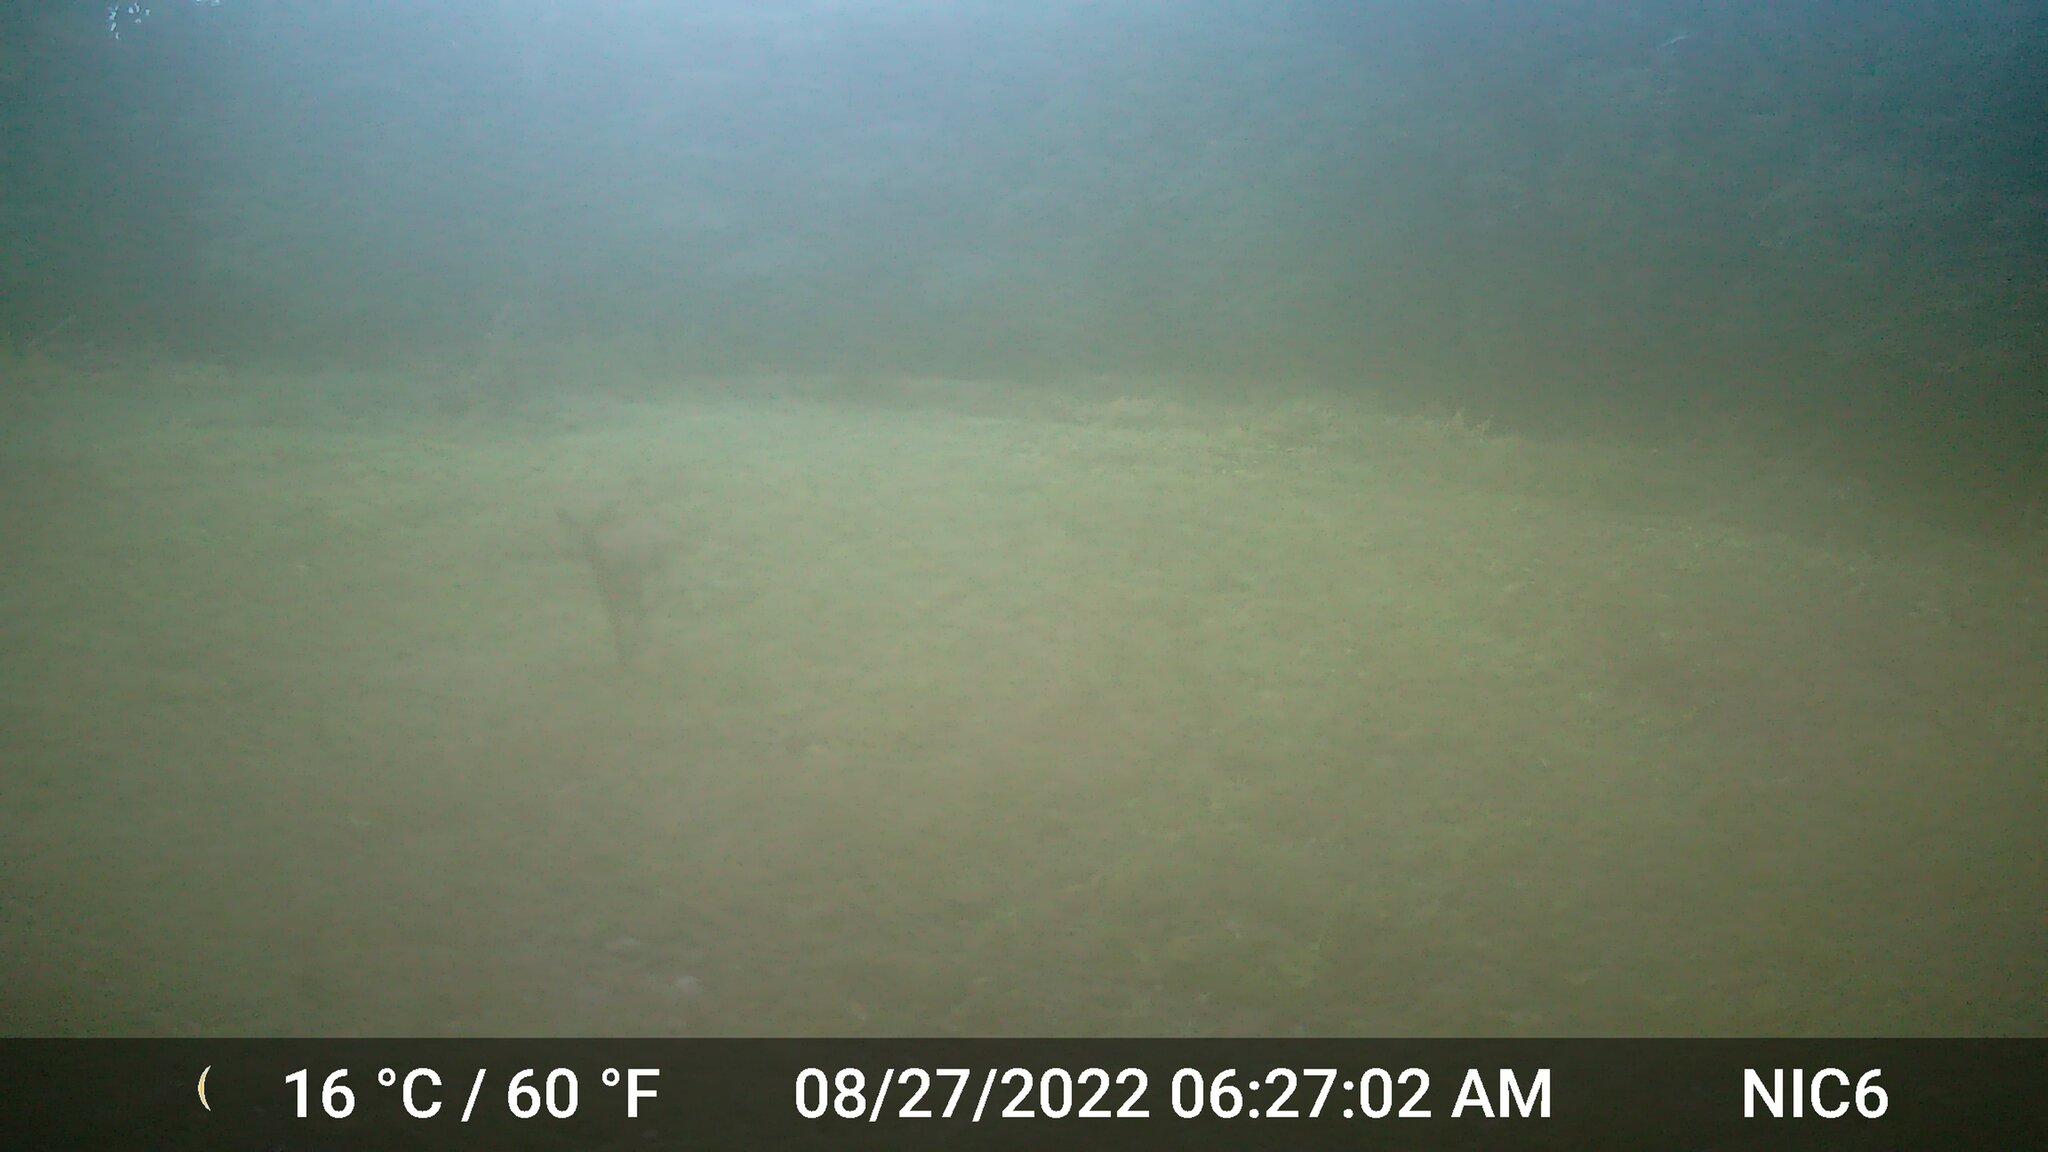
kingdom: Animalia
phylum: Chordata
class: Mammalia
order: Artiodactyla
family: Cervidae
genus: Odocoileus
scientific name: Odocoileus virginianus
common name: White-tailed deer
